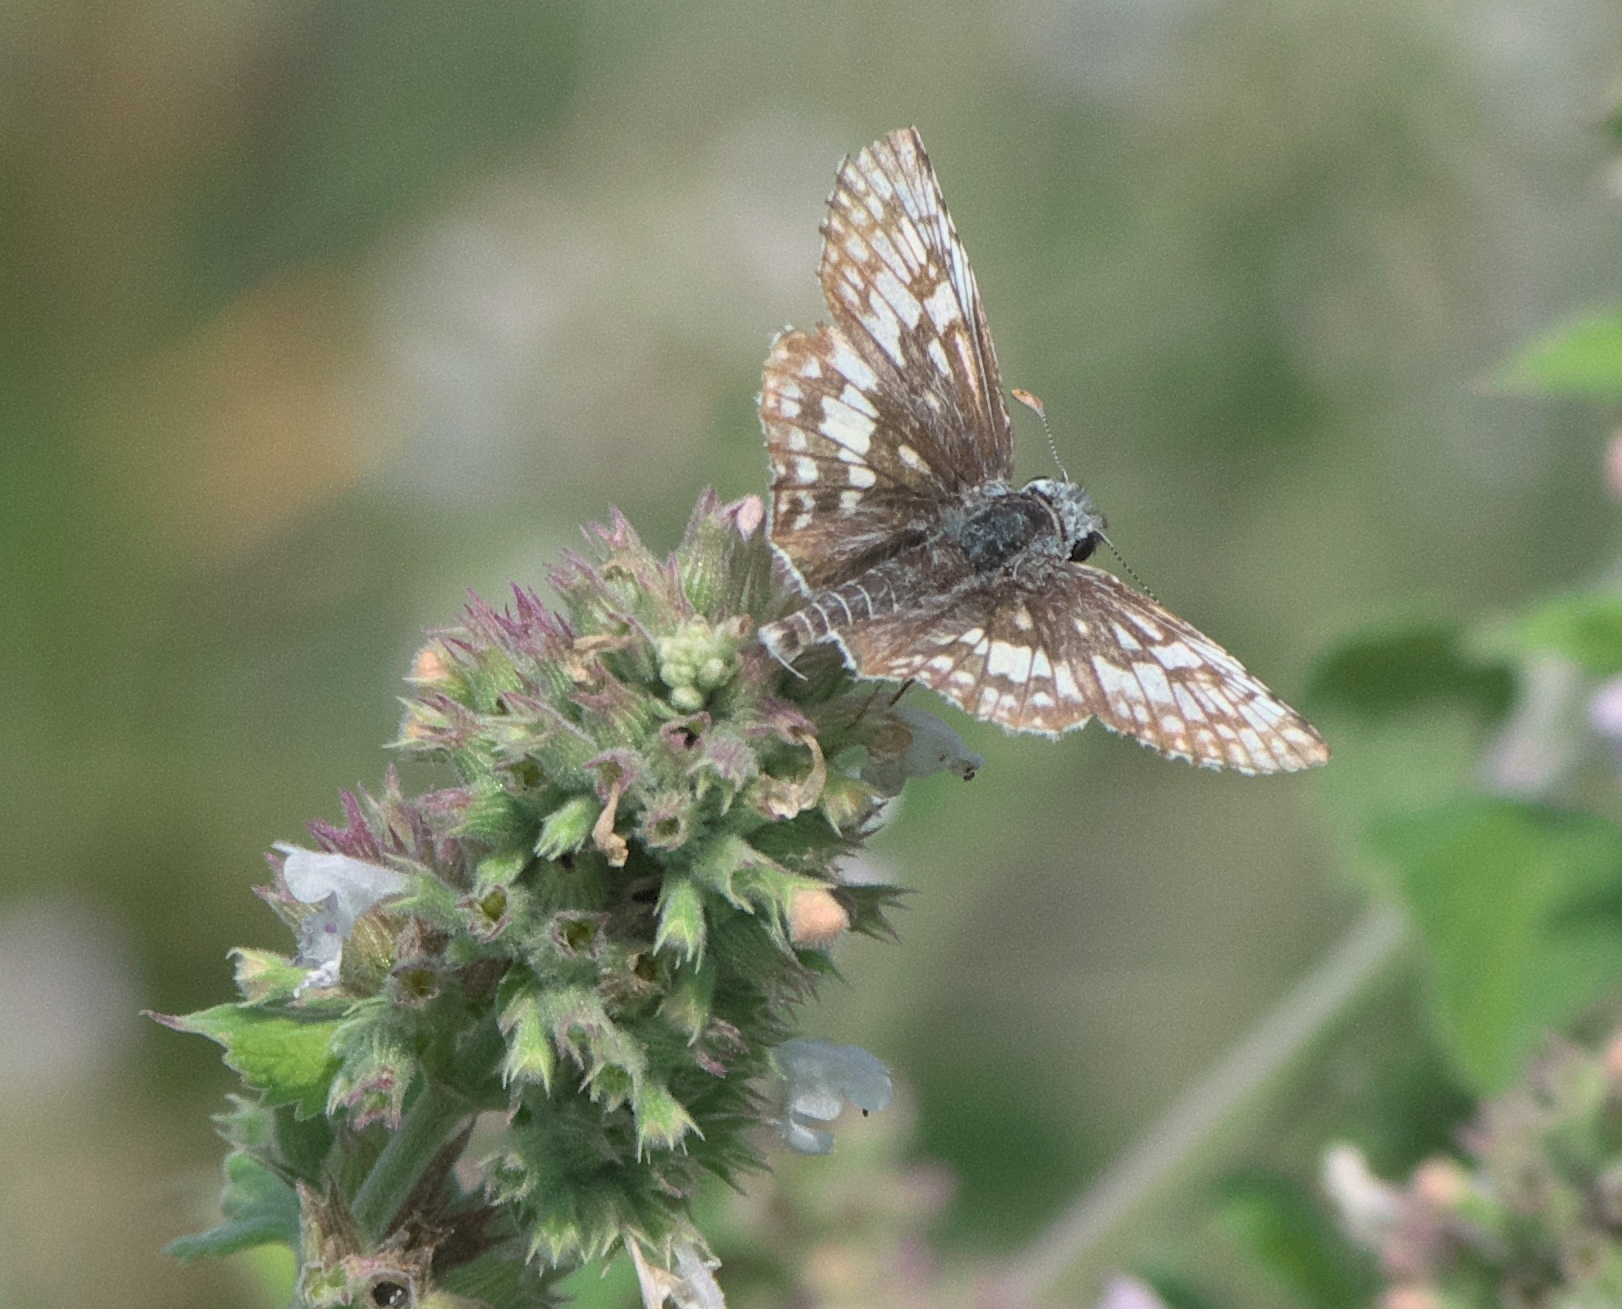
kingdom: Animalia
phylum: Arthropoda
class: Insecta
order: Lepidoptera
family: Hesperiidae
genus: Burnsius
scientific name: Burnsius communis
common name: Common checkered-skipper
